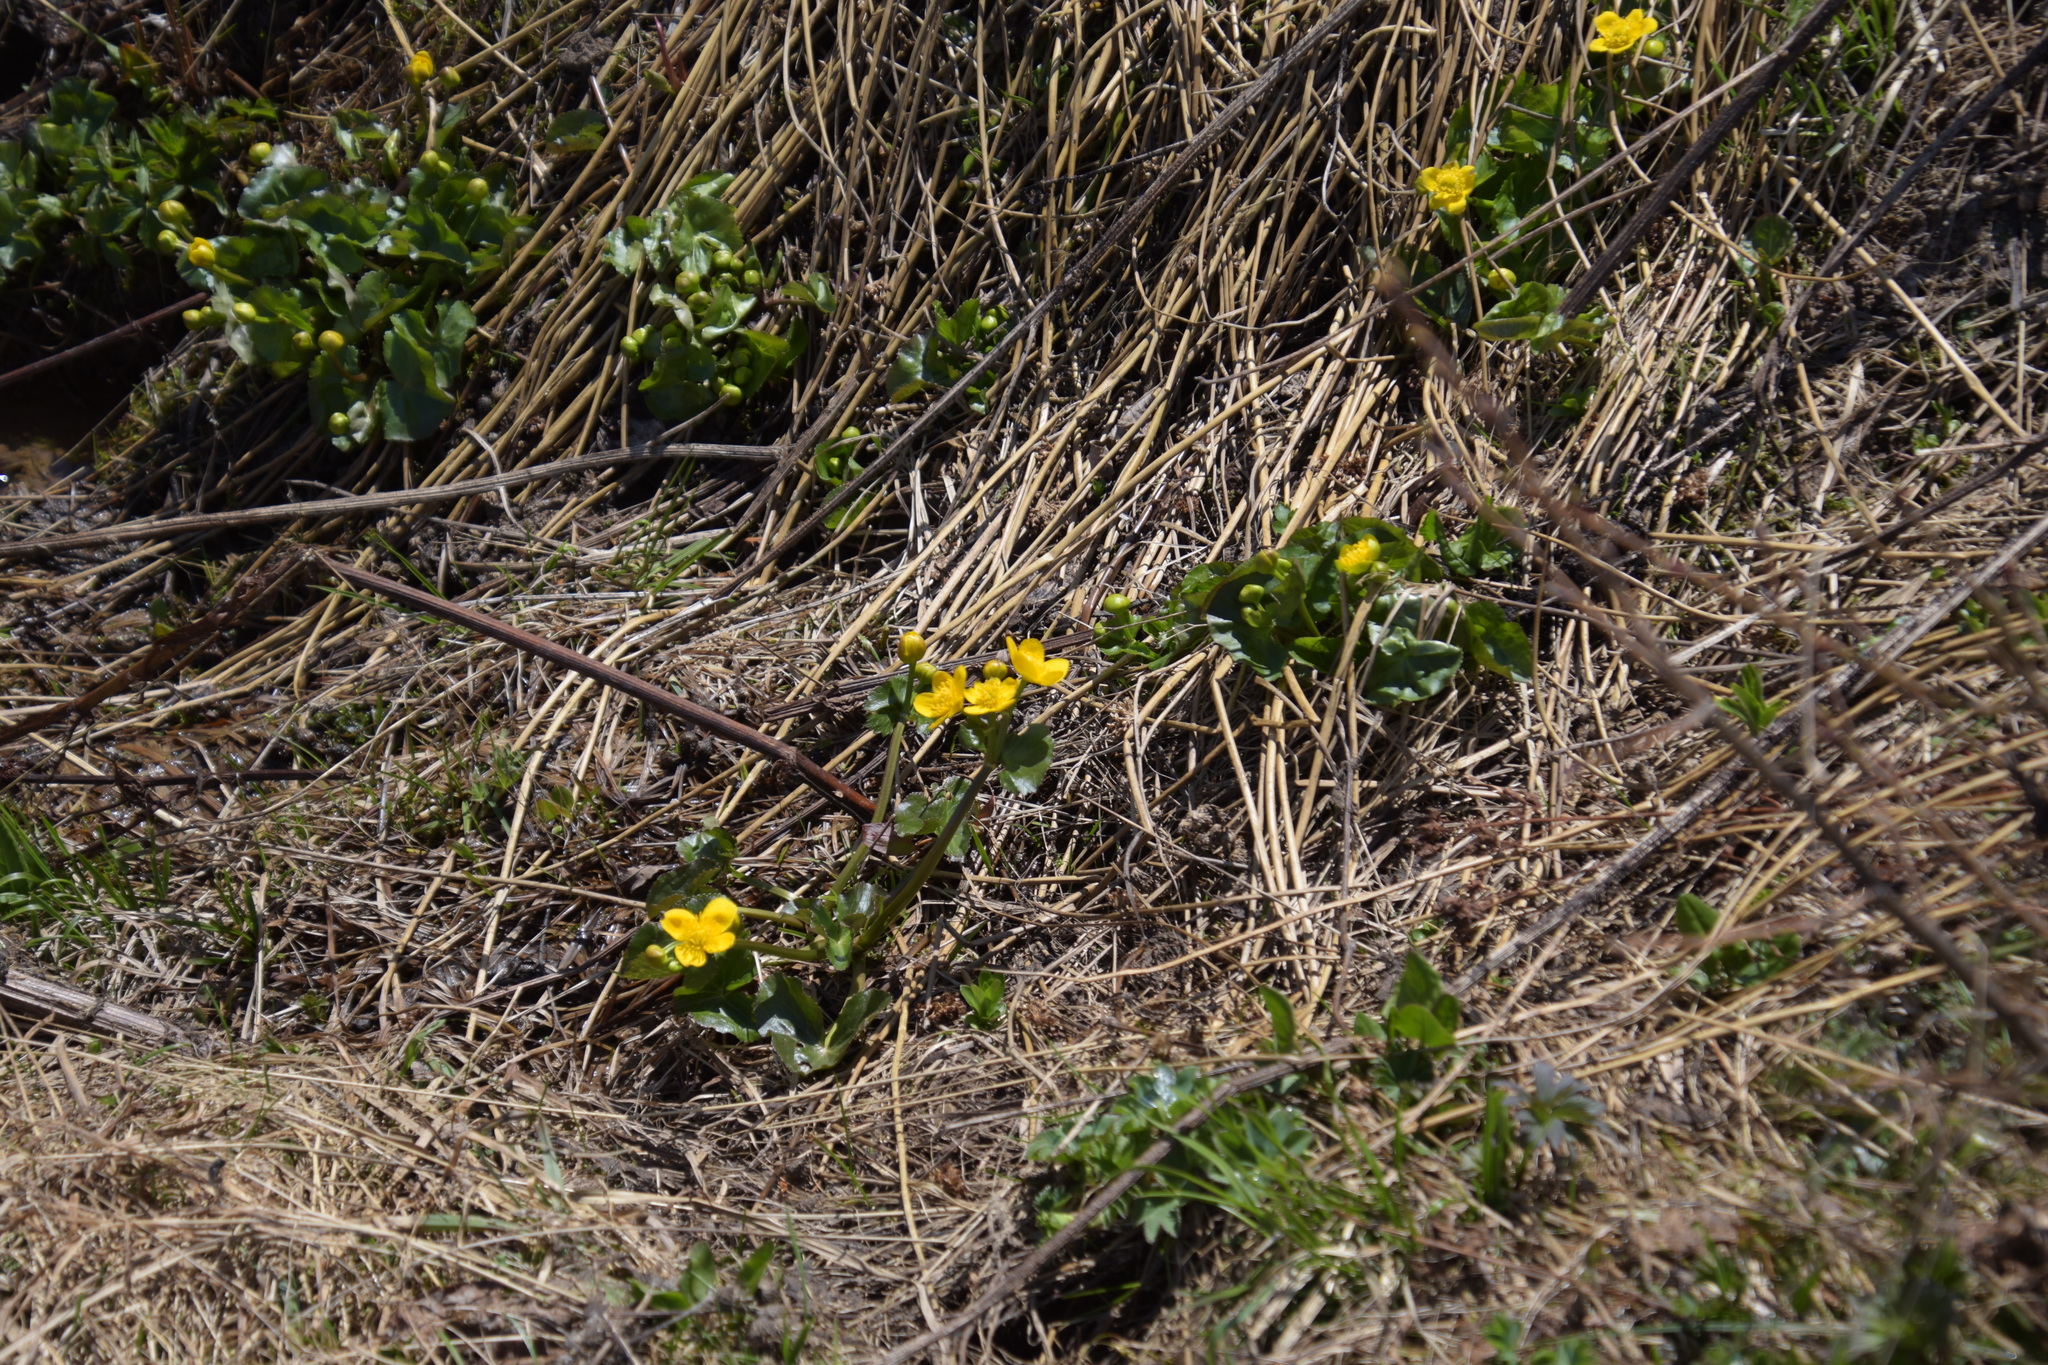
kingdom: Plantae
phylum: Tracheophyta
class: Magnoliopsida
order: Ranunculales
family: Ranunculaceae
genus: Caltha
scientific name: Caltha palustris
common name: Marsh marigold
